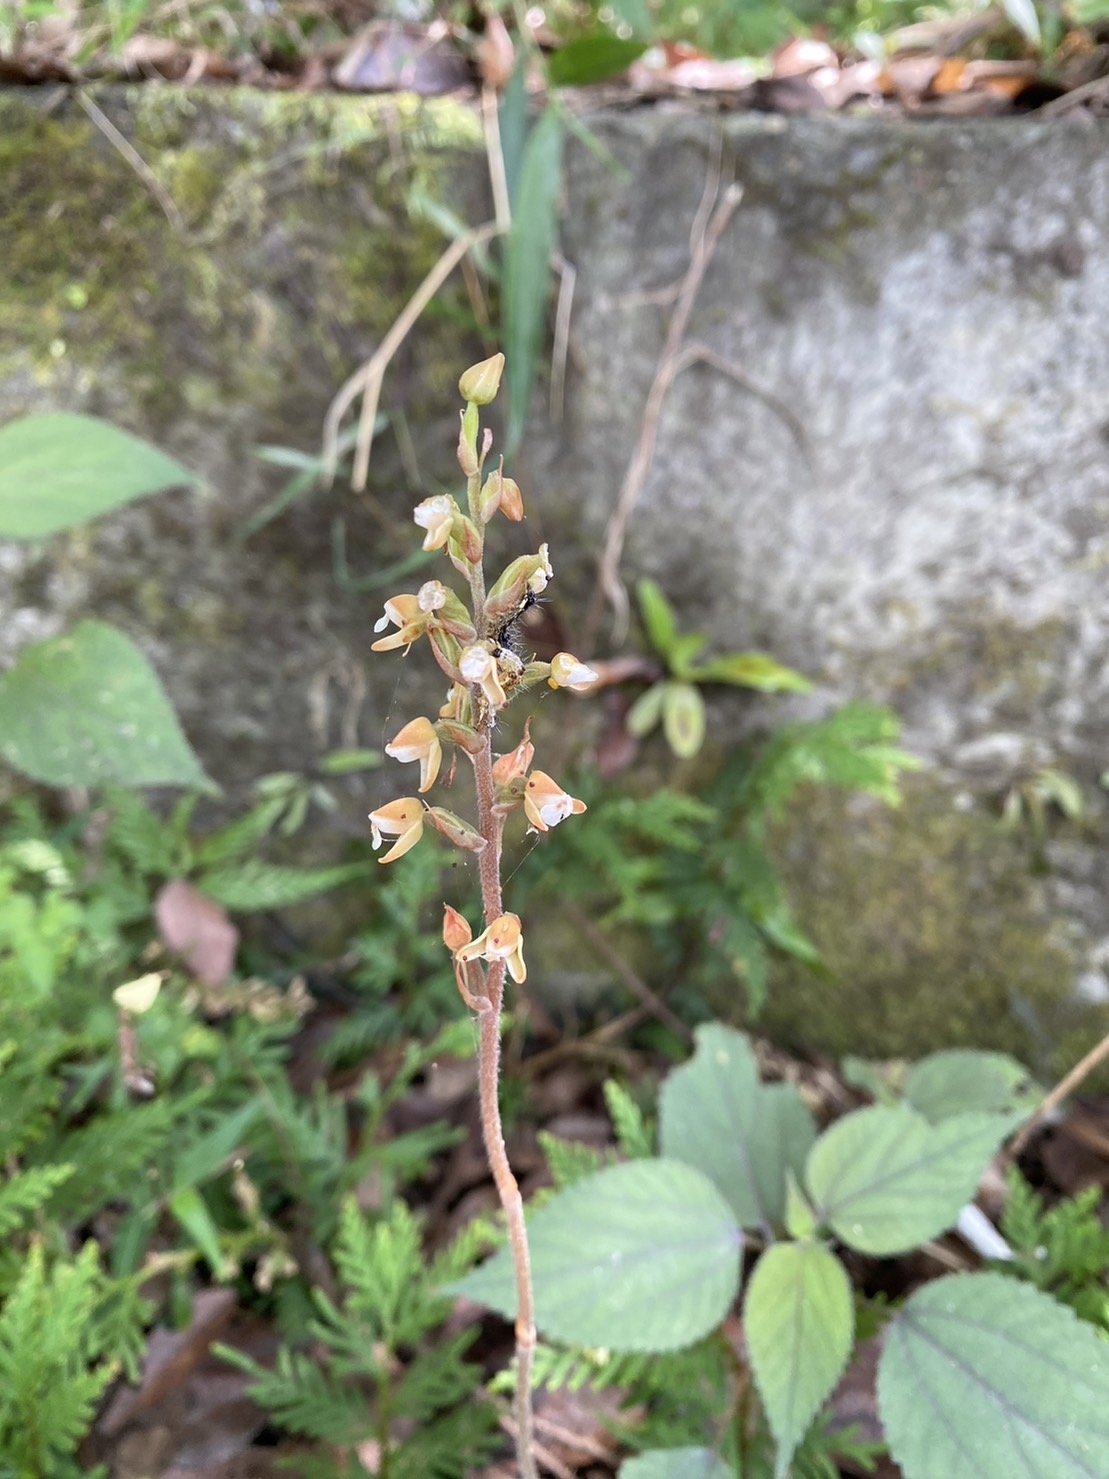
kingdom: Plantae
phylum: Tracheophyta
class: Liliopsida
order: Asparagales
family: Orchidaceae
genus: Zeuxine
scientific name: Zeuxine nervosa
